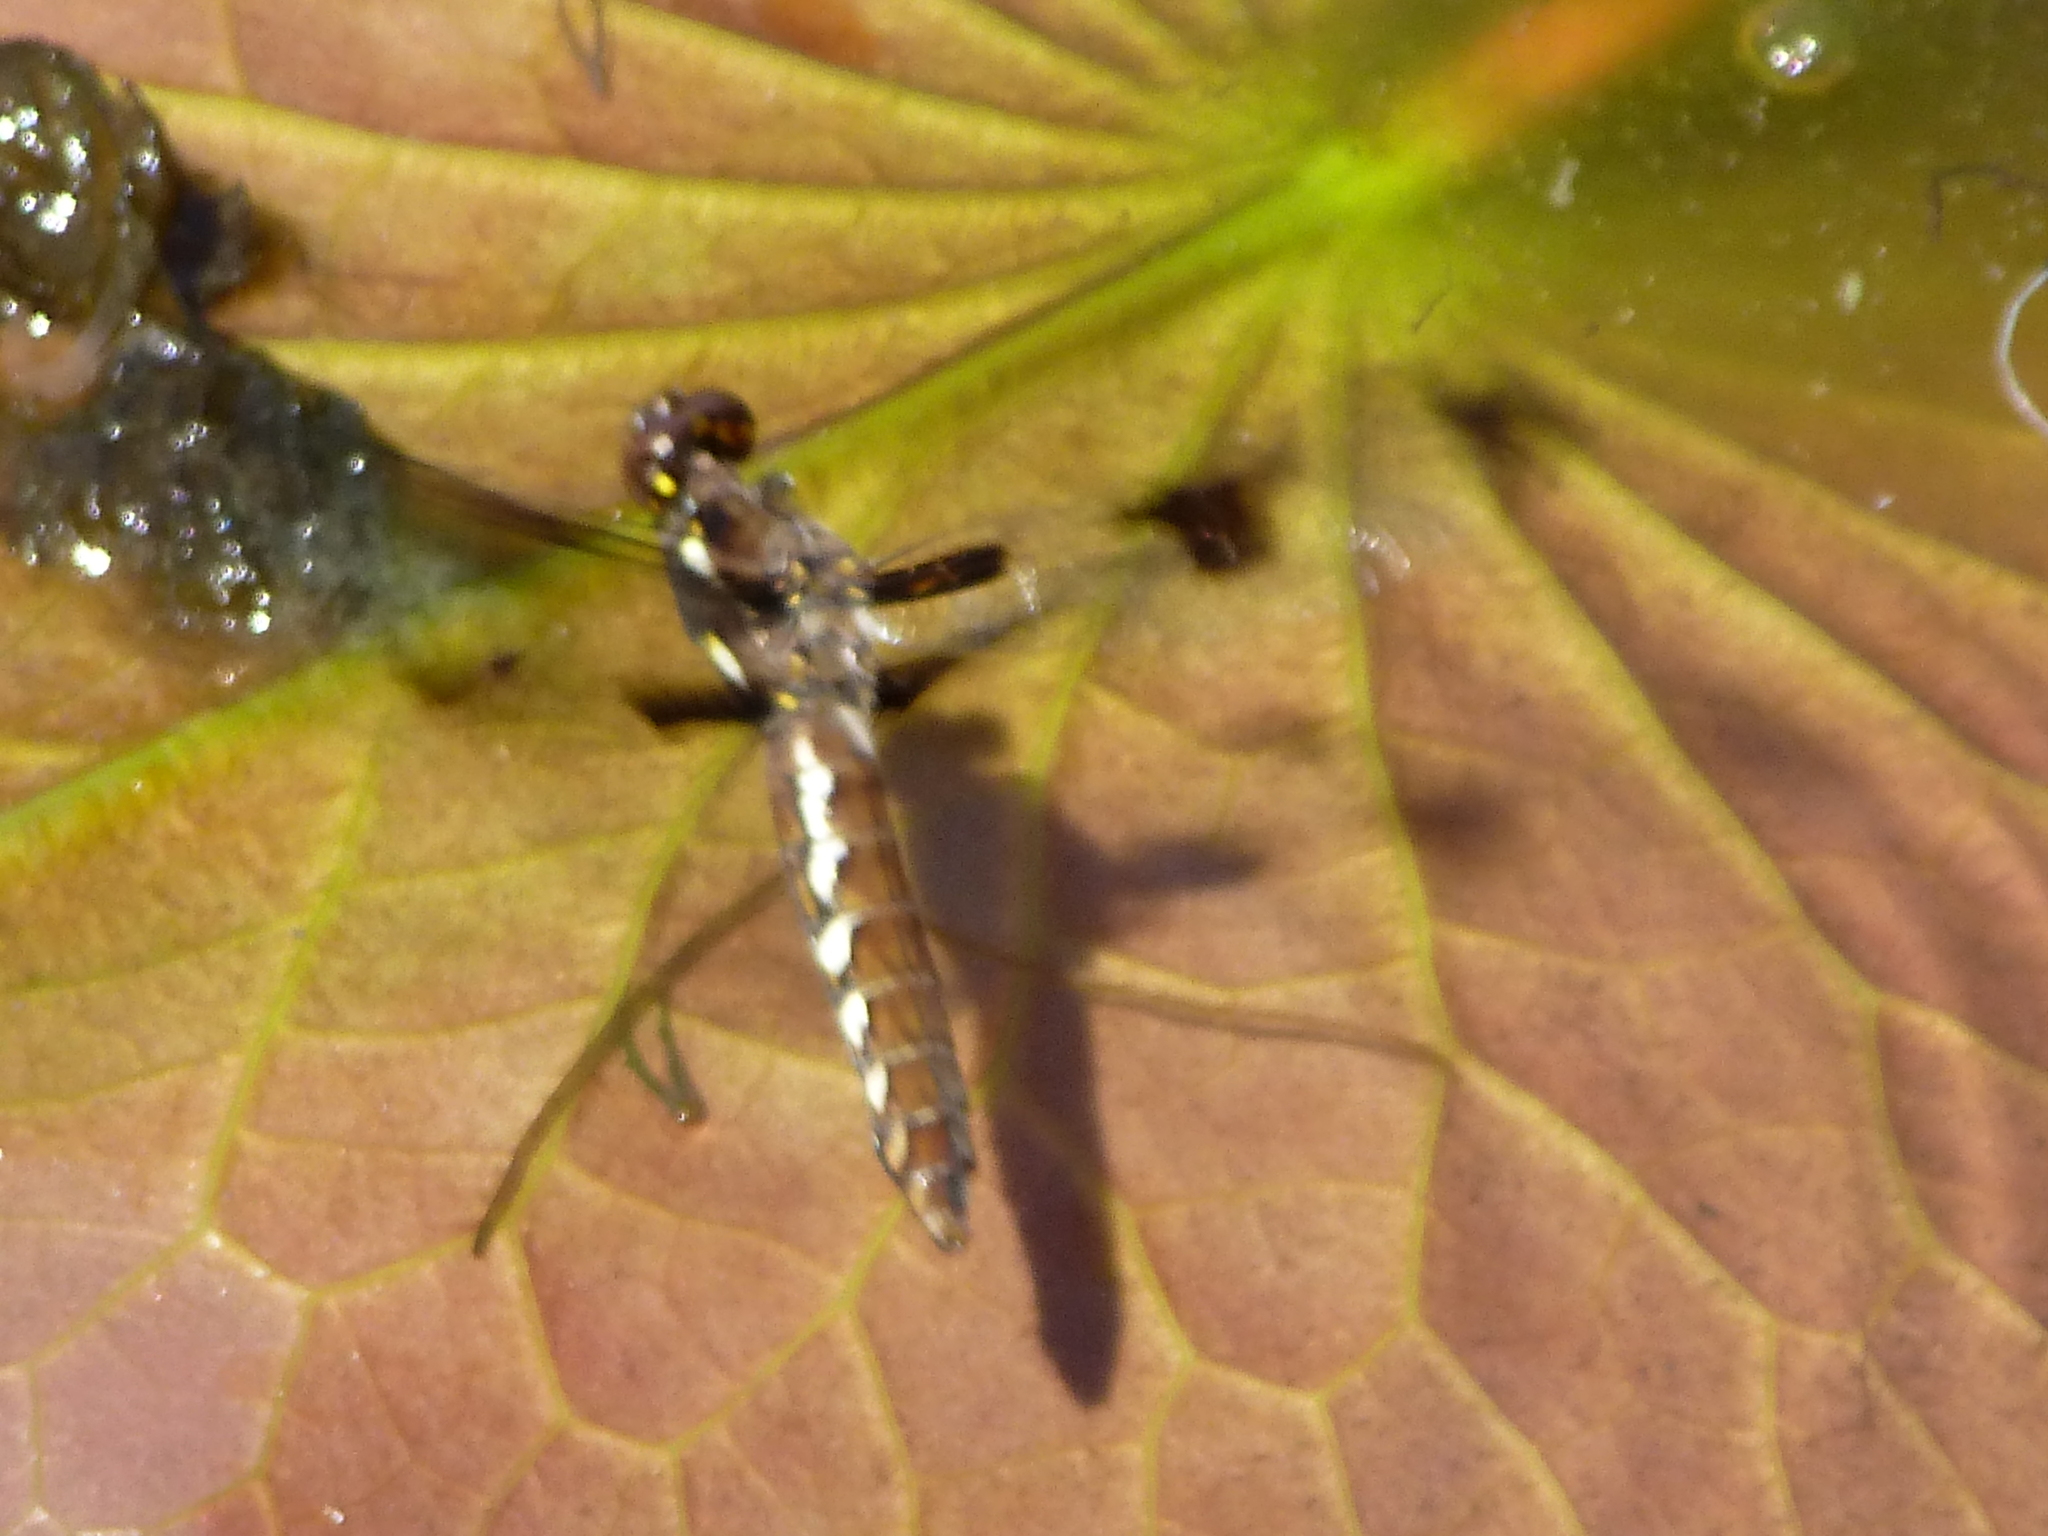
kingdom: Animalia
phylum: Arthropoda
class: Insecta
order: Odonata
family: Libellulidae
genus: Plathemis
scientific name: Plathemis lydia
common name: Common whitetail
